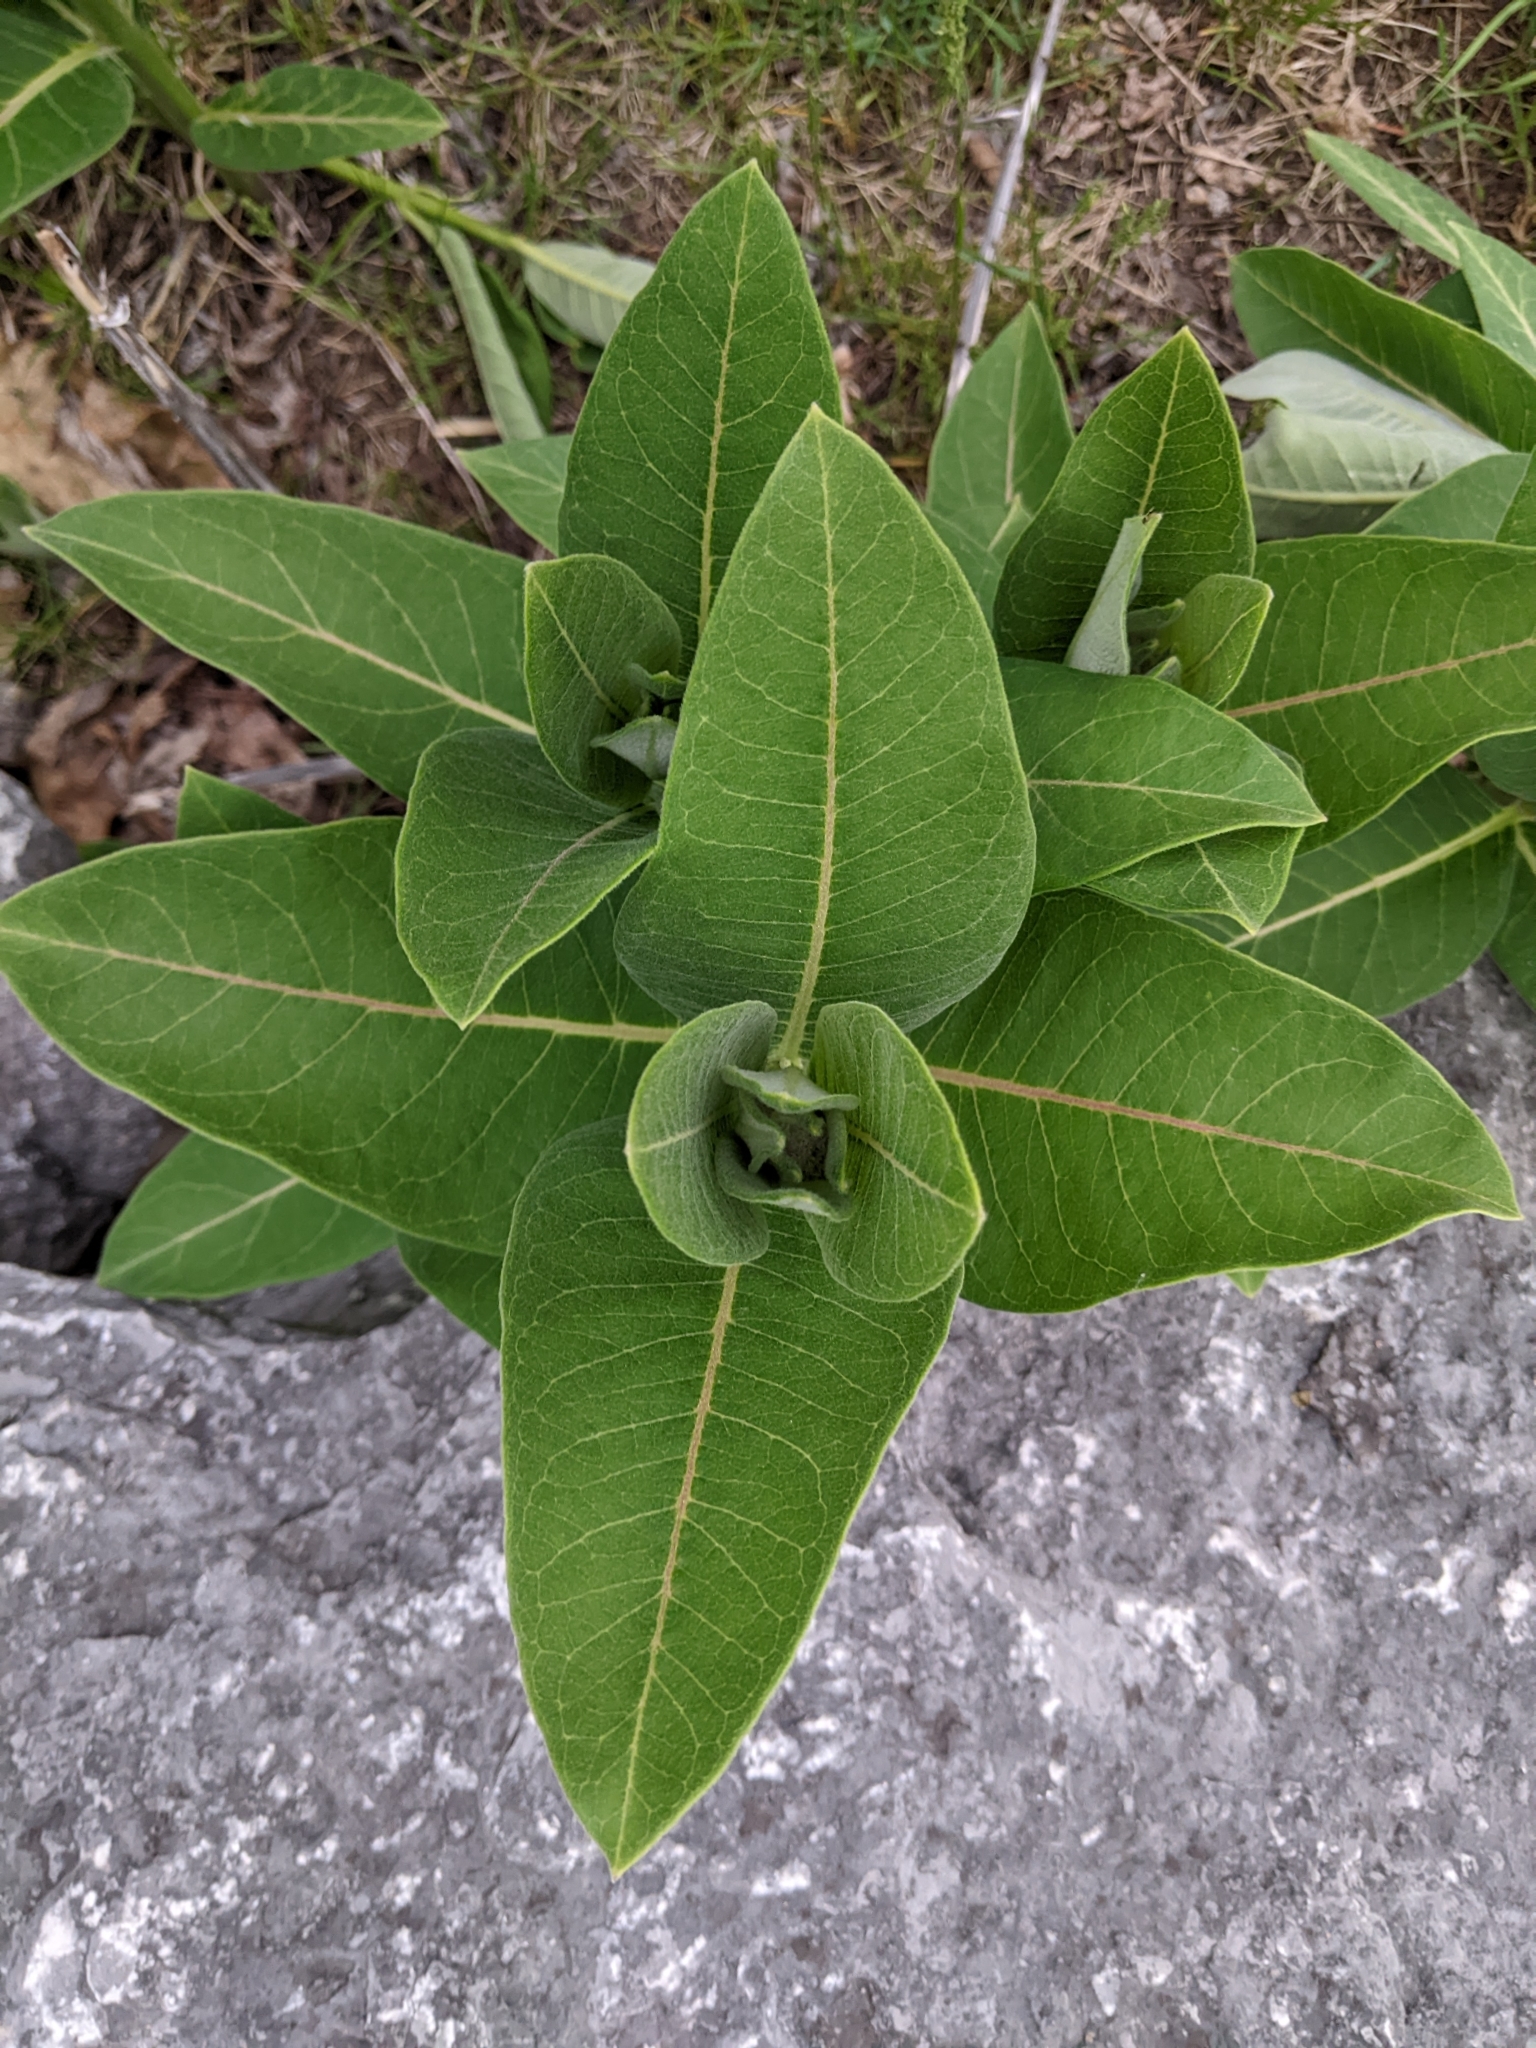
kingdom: Plantae
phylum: Tracheophyta
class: Magnoliopsida
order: Gentianales
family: Apocynaceae
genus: Asclepias
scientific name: Asclepias syriaca
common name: Common milkweed
